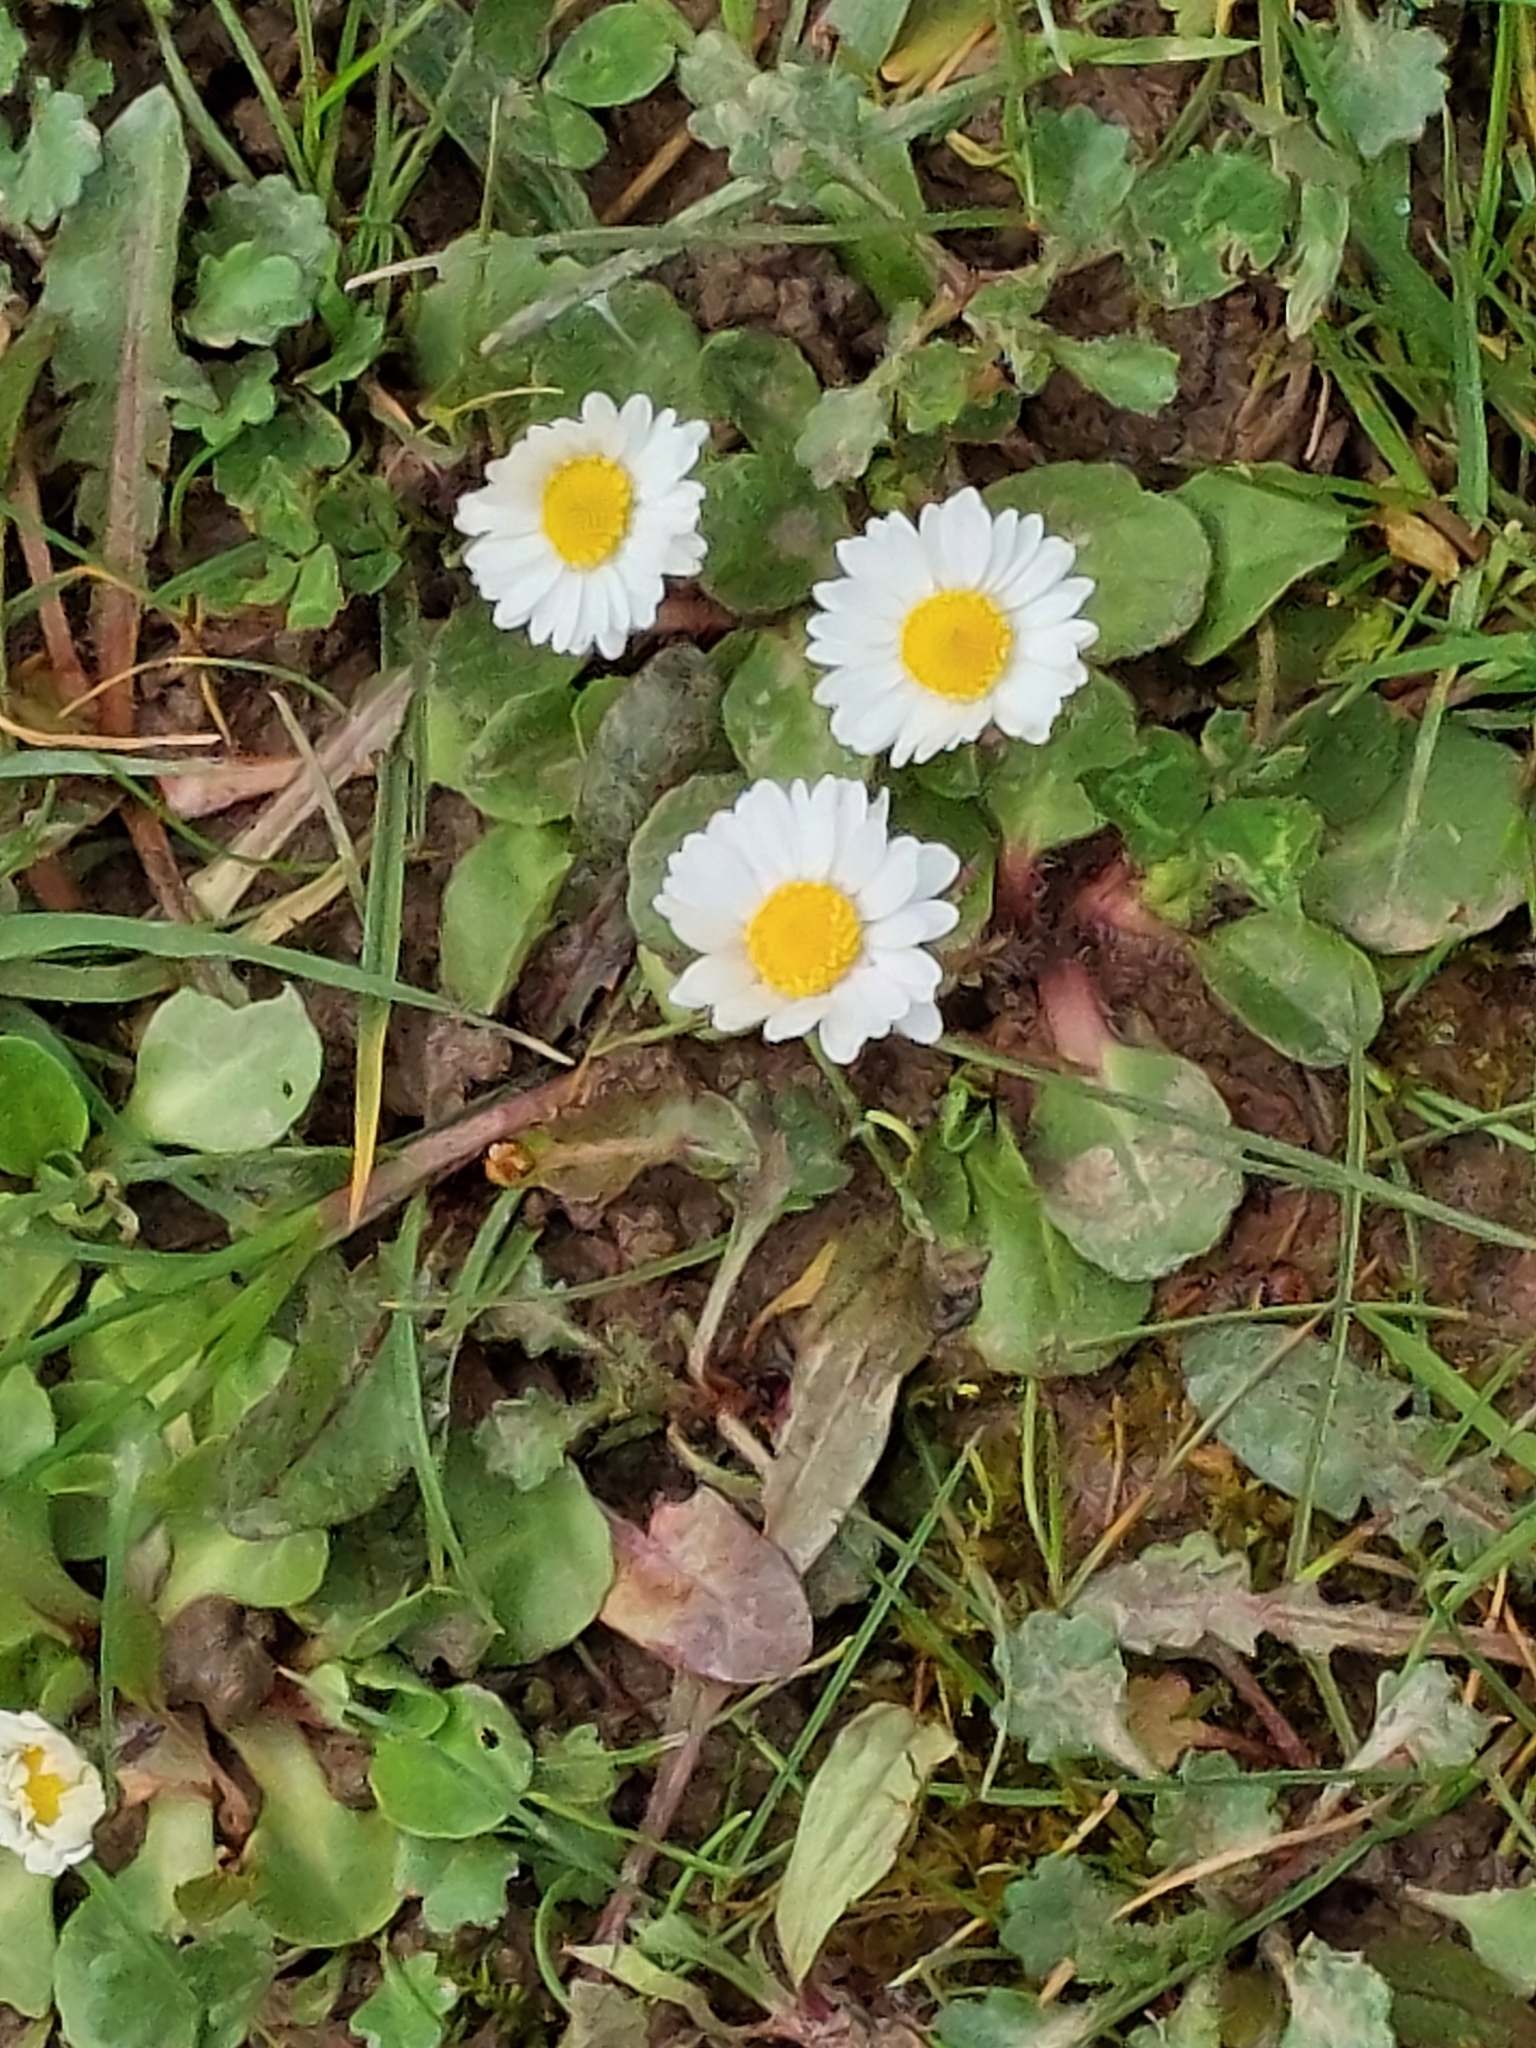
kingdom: Plantae
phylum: Tracheophyta
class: Magnoliopsida
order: Asterales
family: Asteraceae
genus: Bellis
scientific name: Bellis perennis
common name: Lawndaisy
